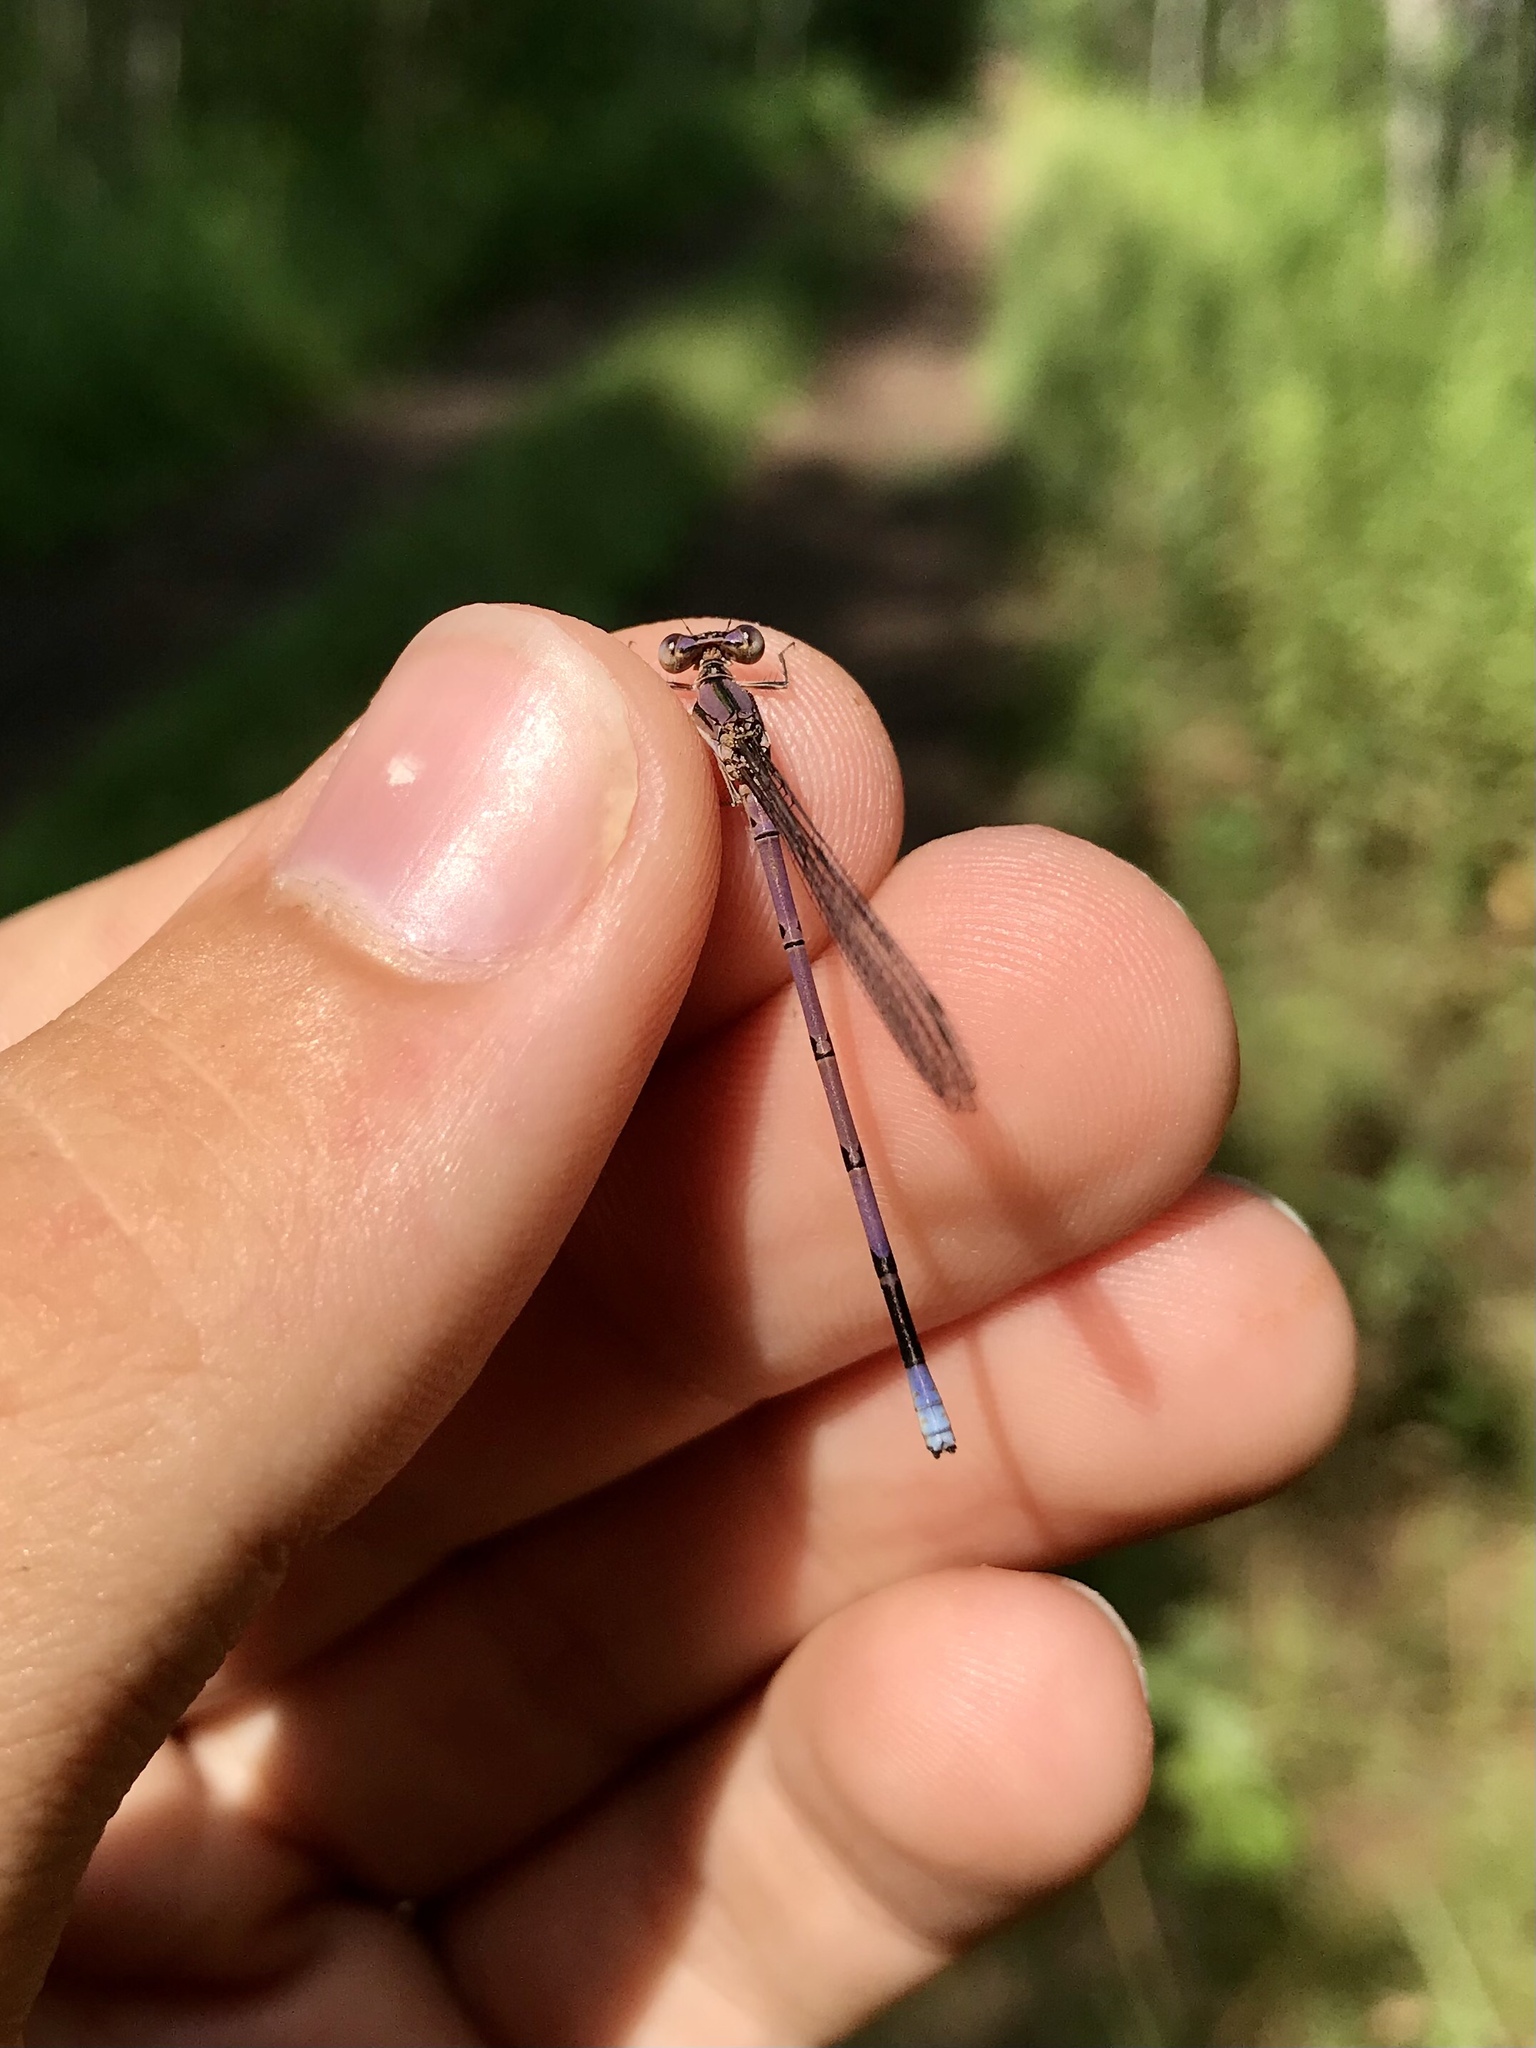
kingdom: Animalia
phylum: Arthropoda
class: Insecta
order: Odonata
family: Coenagrionidae
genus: Argia
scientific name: Argia fumipennis
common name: Variable dancer
